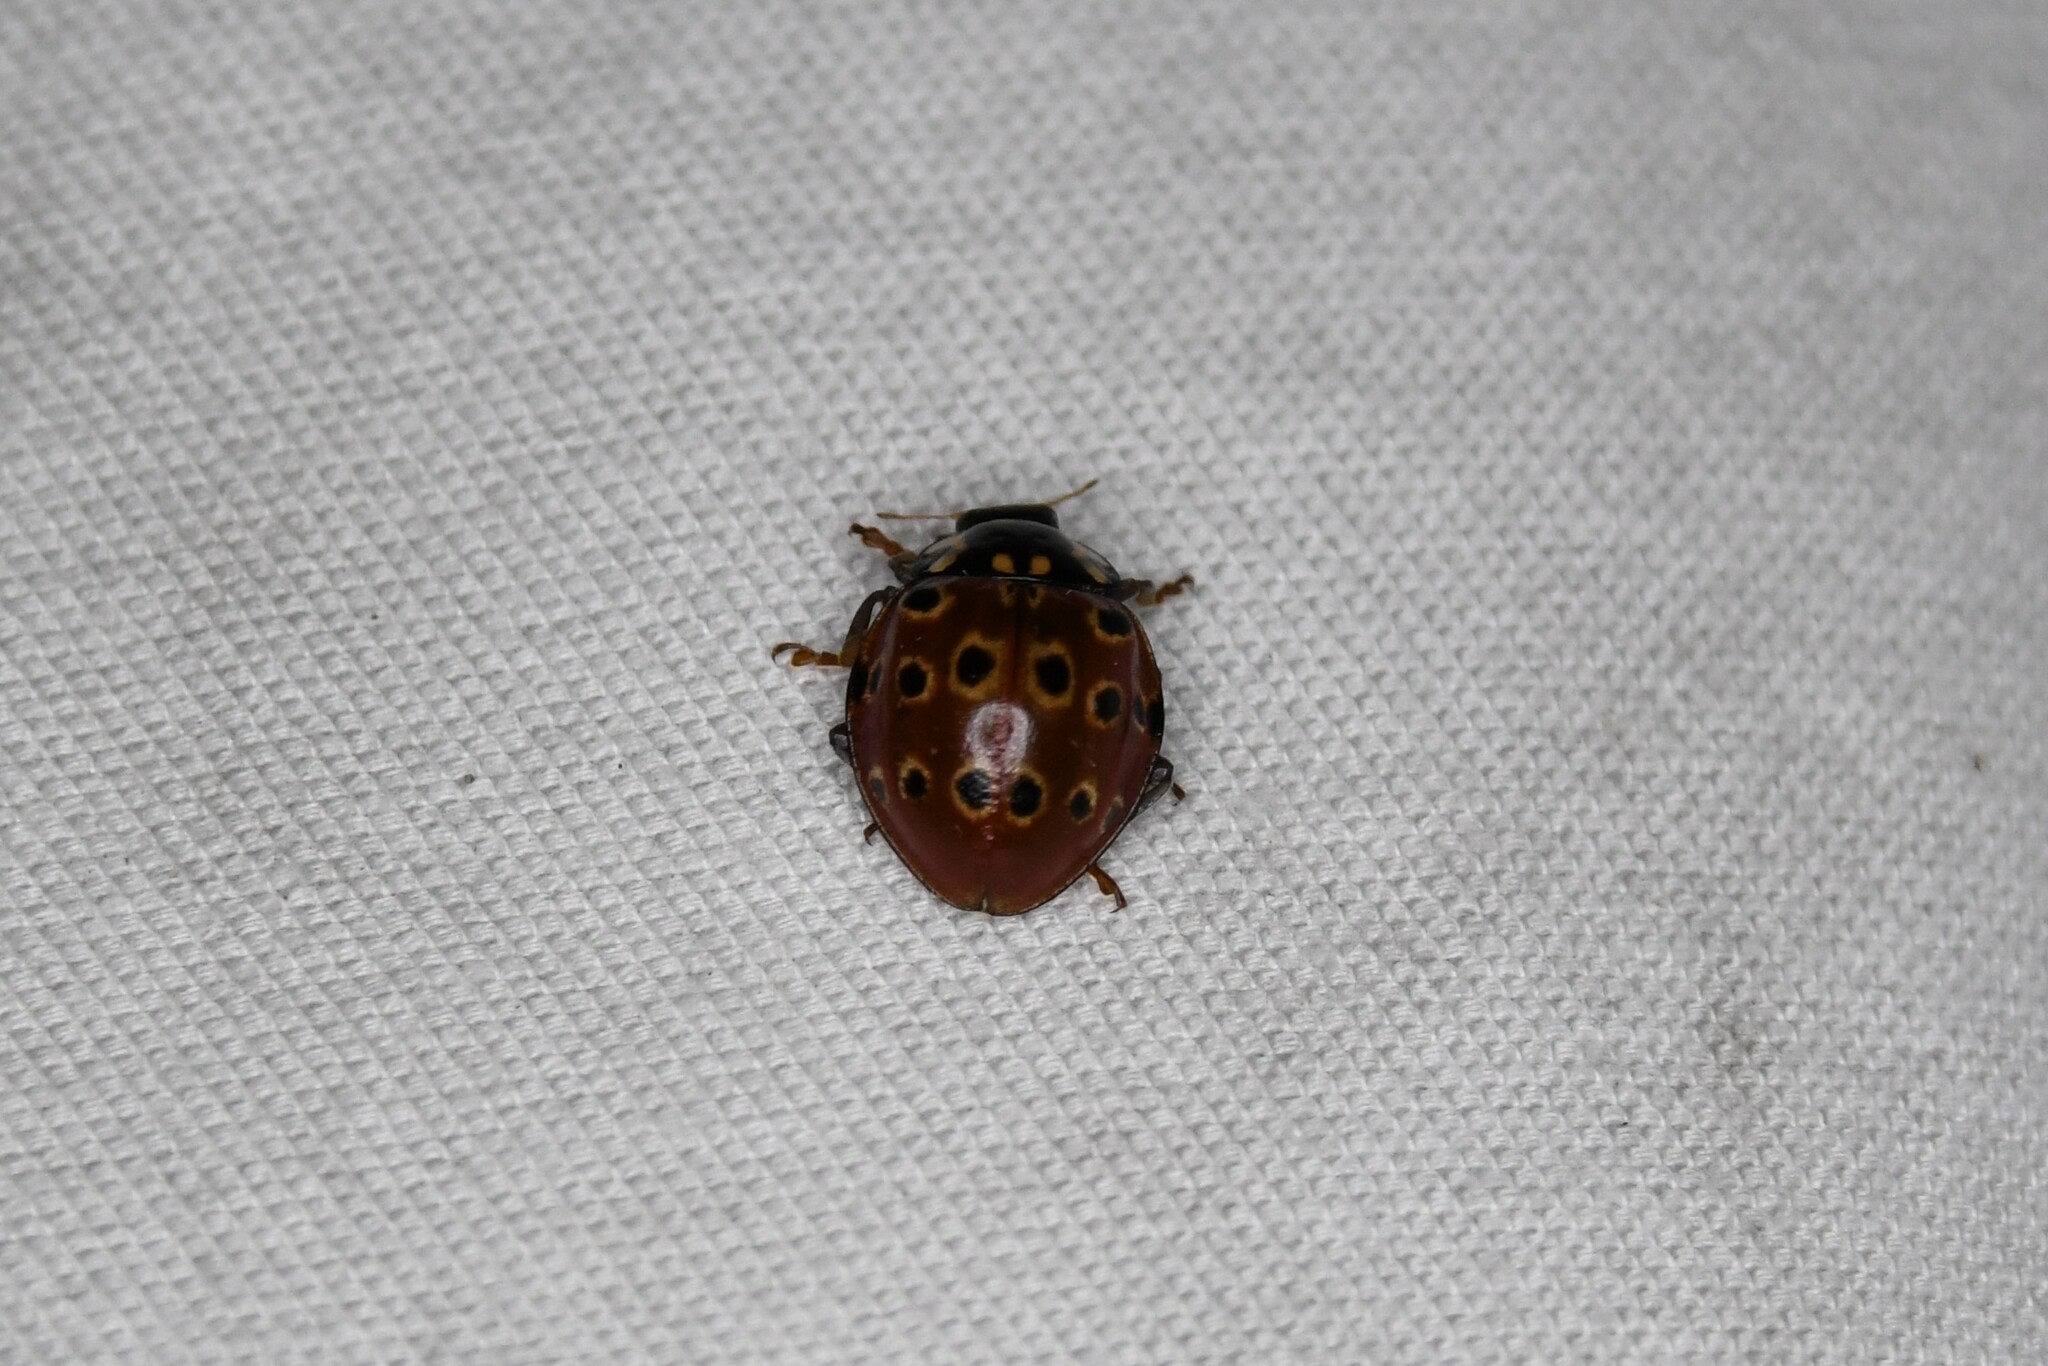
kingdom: Animalia
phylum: Arthropoda
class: Insecta
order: Coleoptera
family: Coccinellidae
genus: Anatis
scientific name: Anatis mali
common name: Eye-spotted lady beetle
